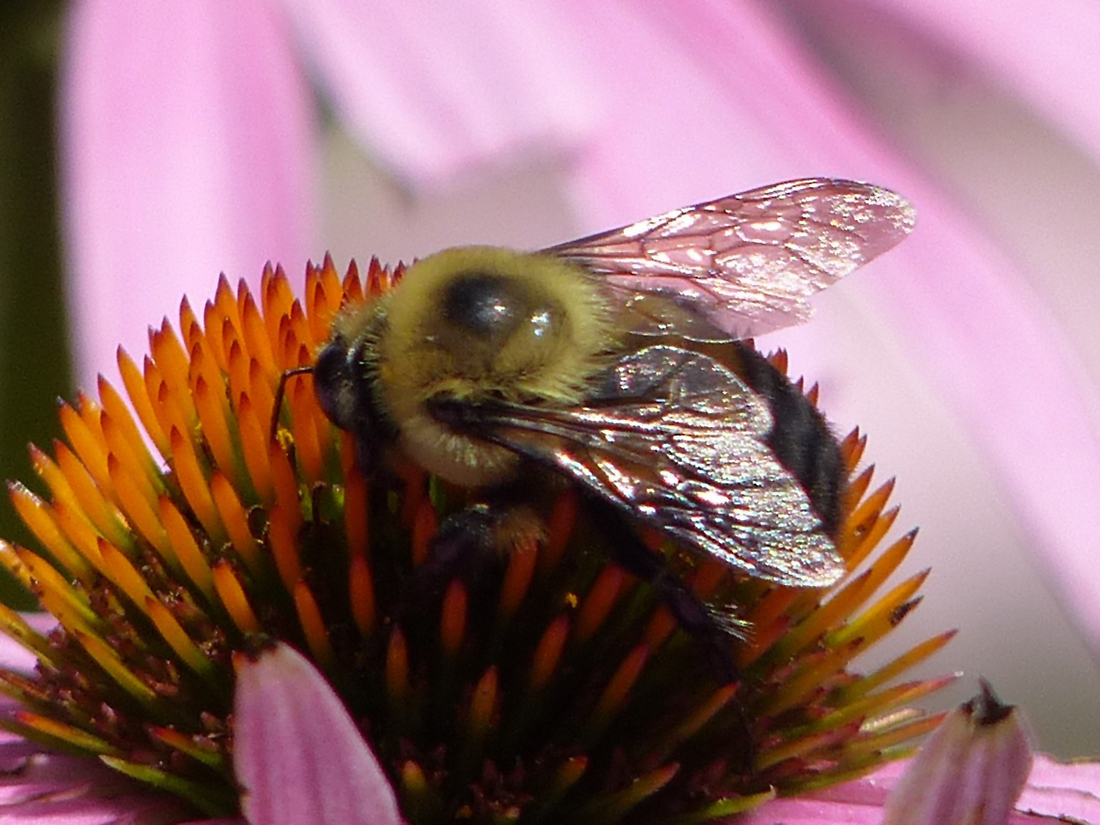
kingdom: Animalia
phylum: Arthropoda
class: Insecta
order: Hymenoptera
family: Apidae
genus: Bombus
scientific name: Bombus griseocollis
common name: Brown-belted bumble bee
